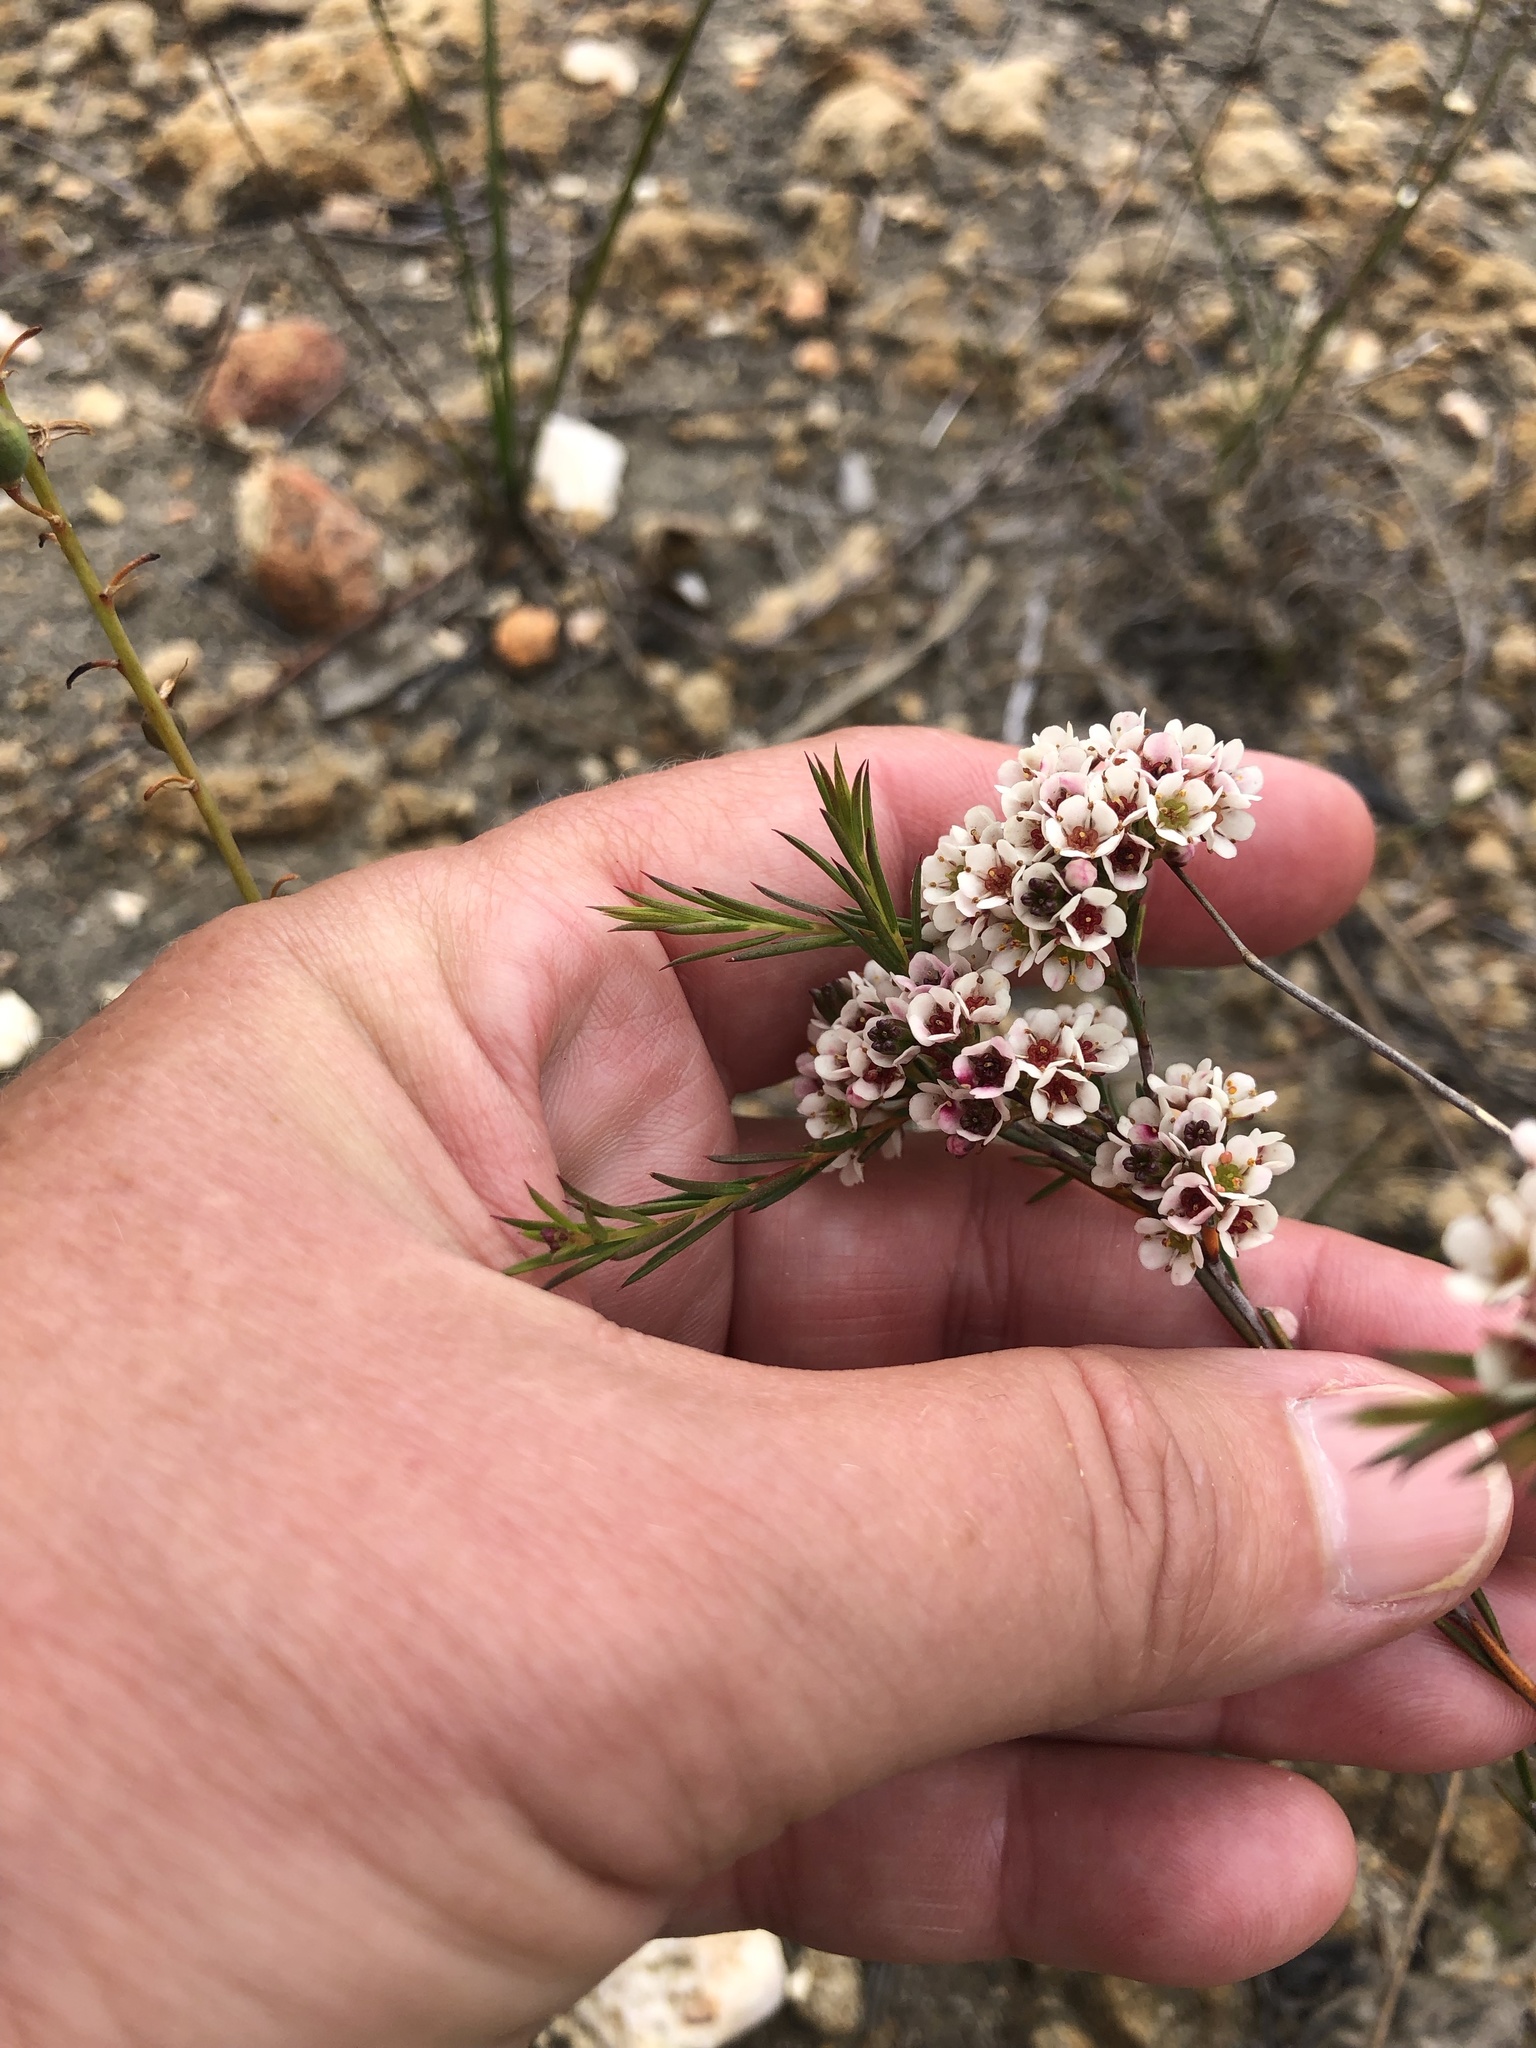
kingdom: Plantae
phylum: Tracheophyta
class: Magnoliopsida
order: Sapindales
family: Rutaceae
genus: Diosma
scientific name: Diosma hirsuta
